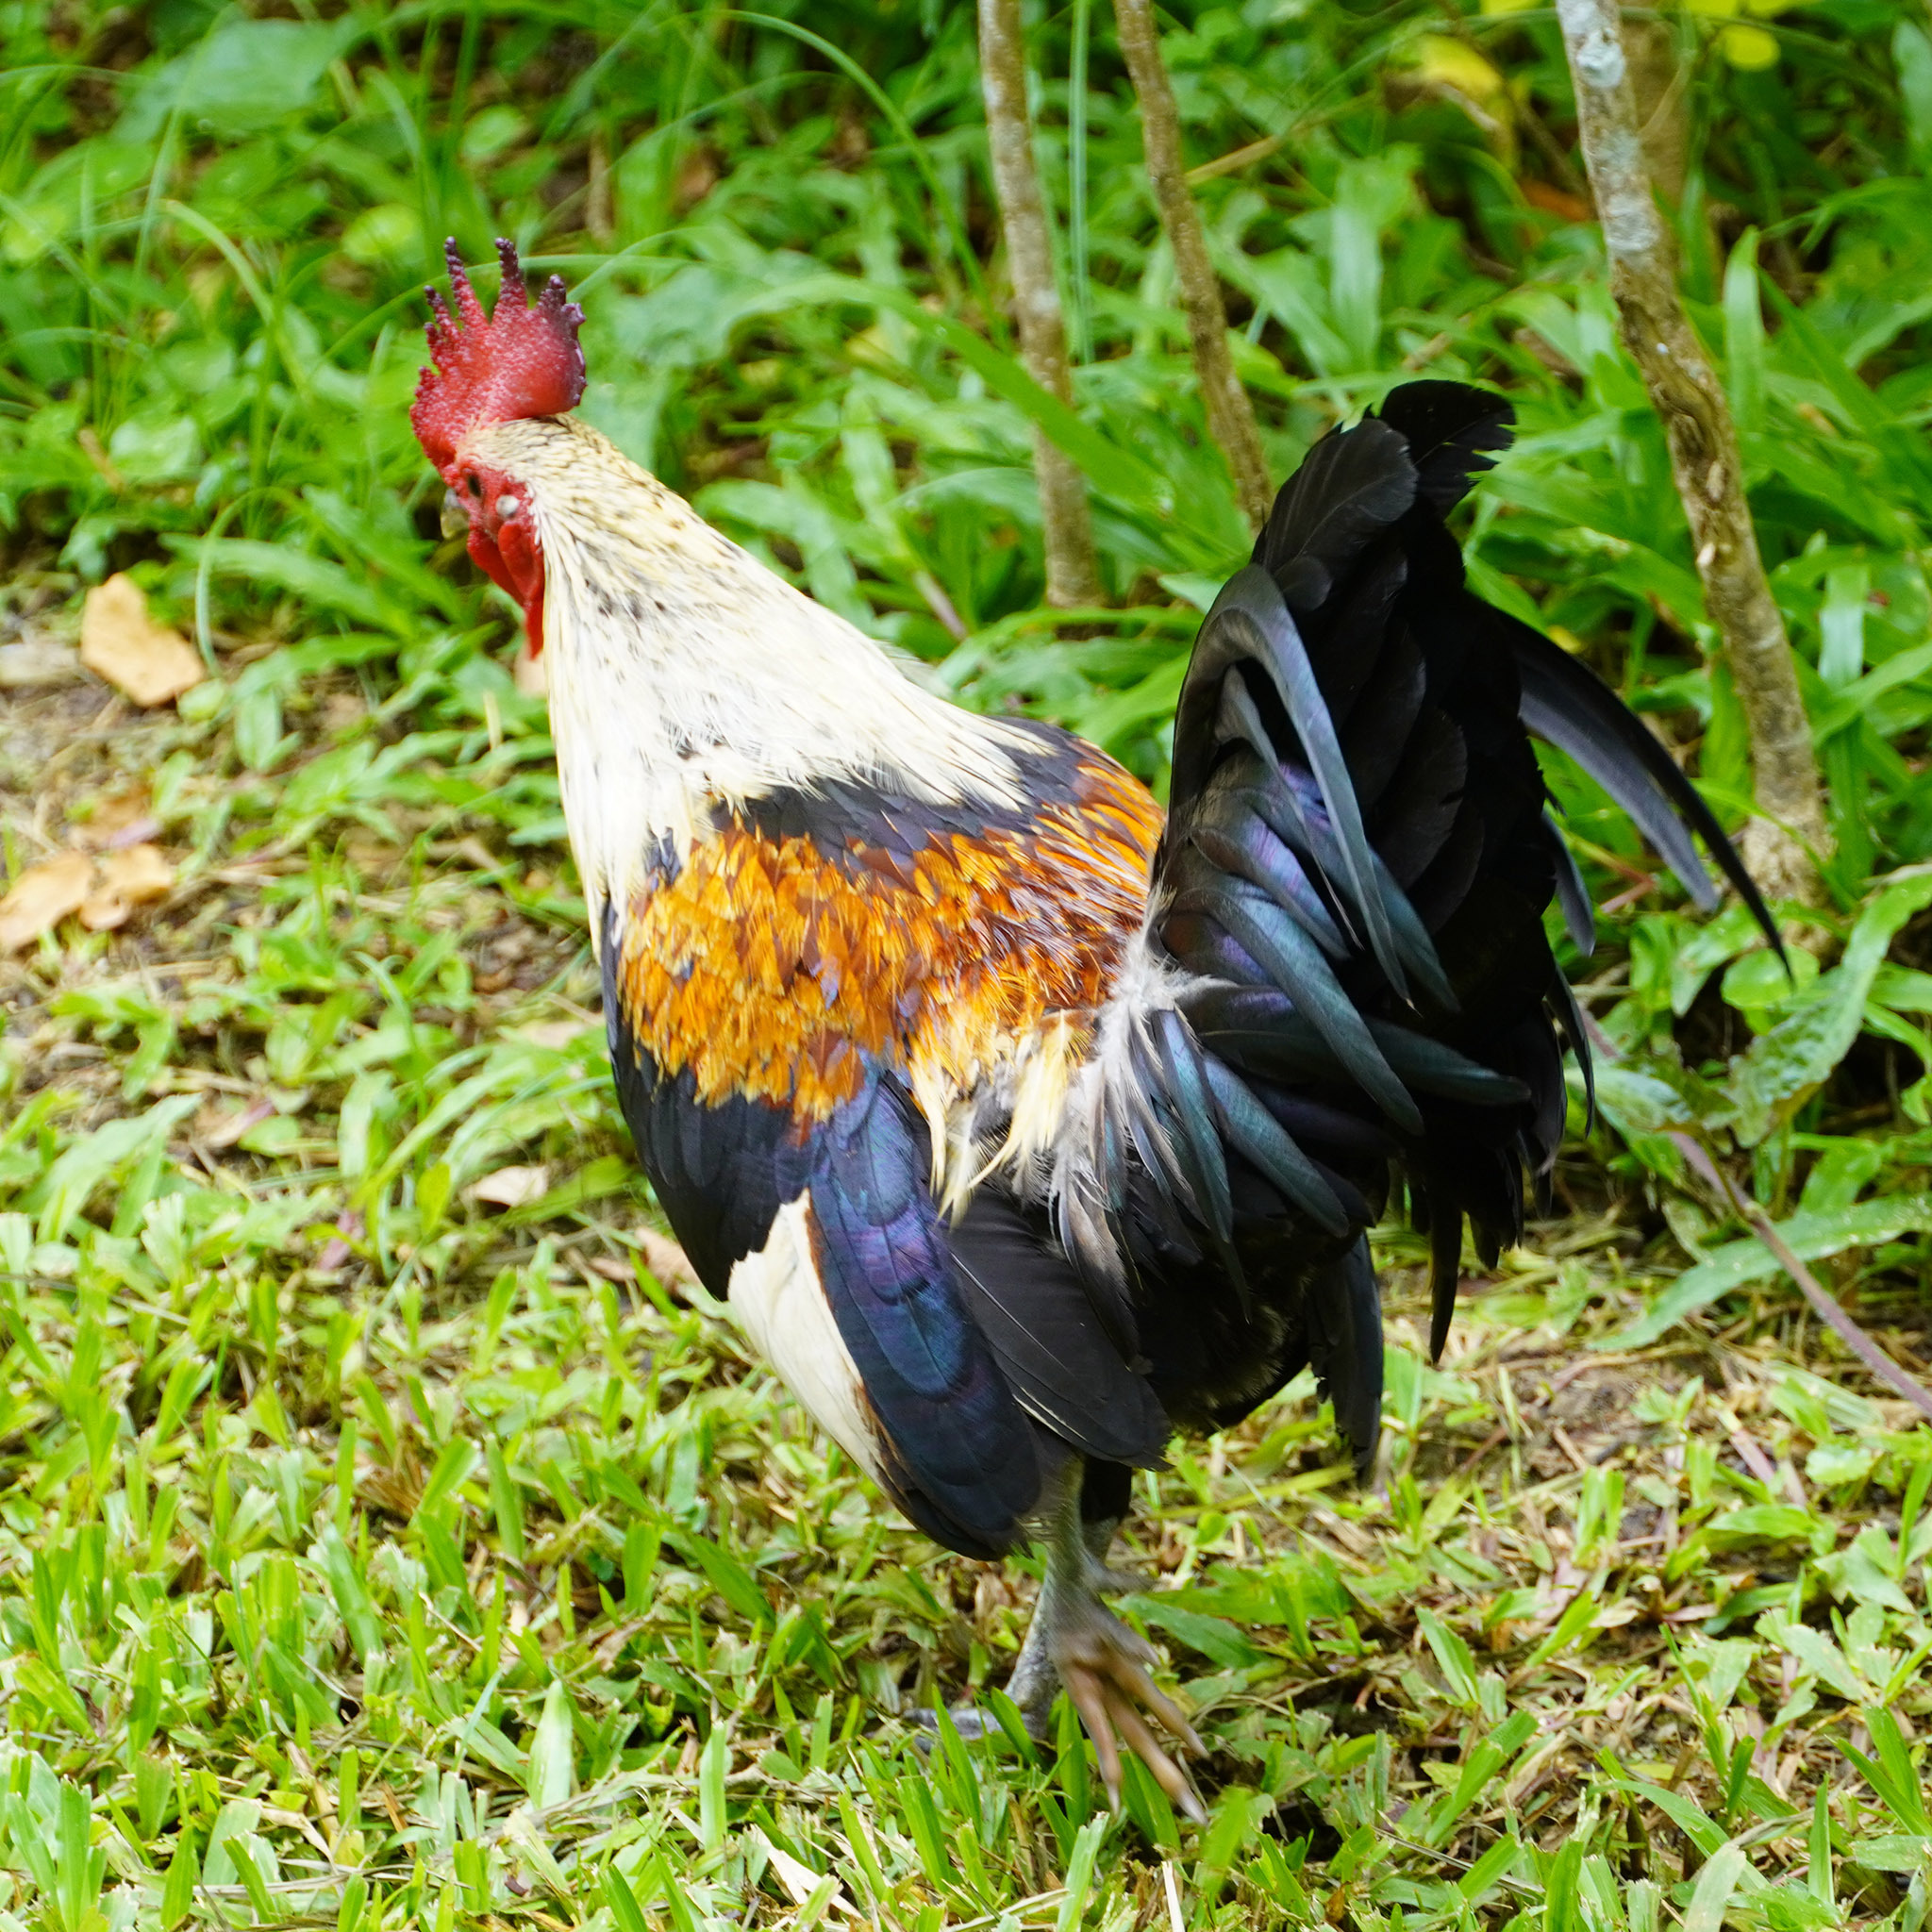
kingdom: Animalia
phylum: Chordata
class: Aves
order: Galliformes
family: Phasianidae
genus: Gallus
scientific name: Gallus gallus
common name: Red junglefowl
